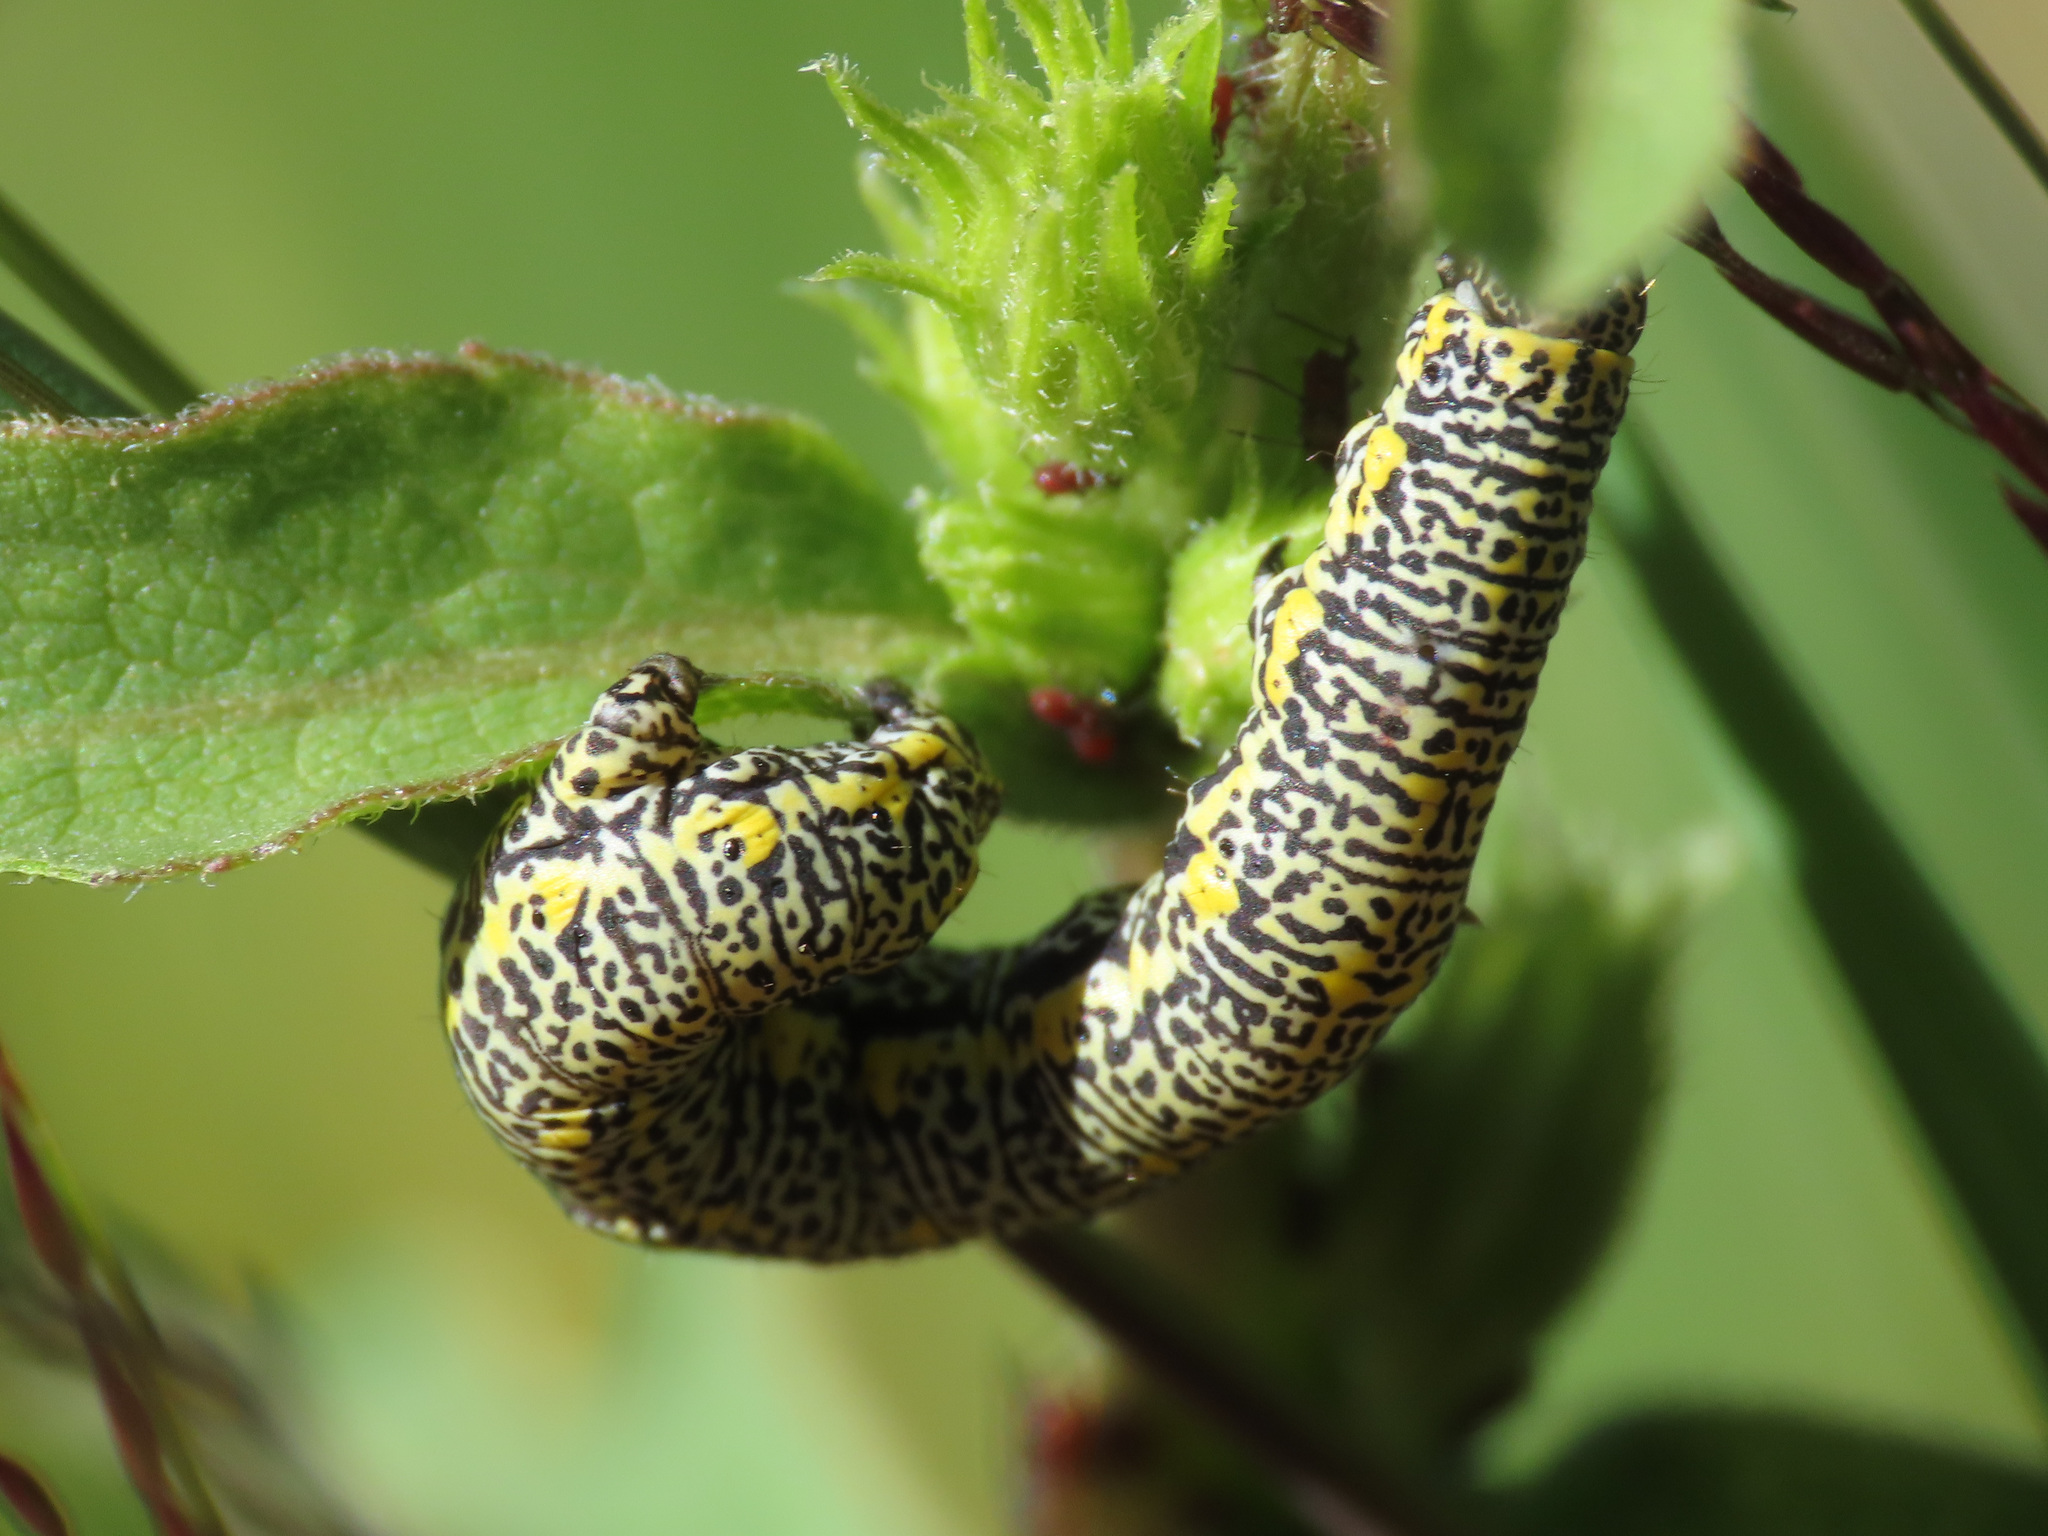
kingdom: Animalia
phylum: Arthropoda
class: Insecta
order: Lepidoptera
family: Geometridae
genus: Lycia
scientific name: Lycia alpina
